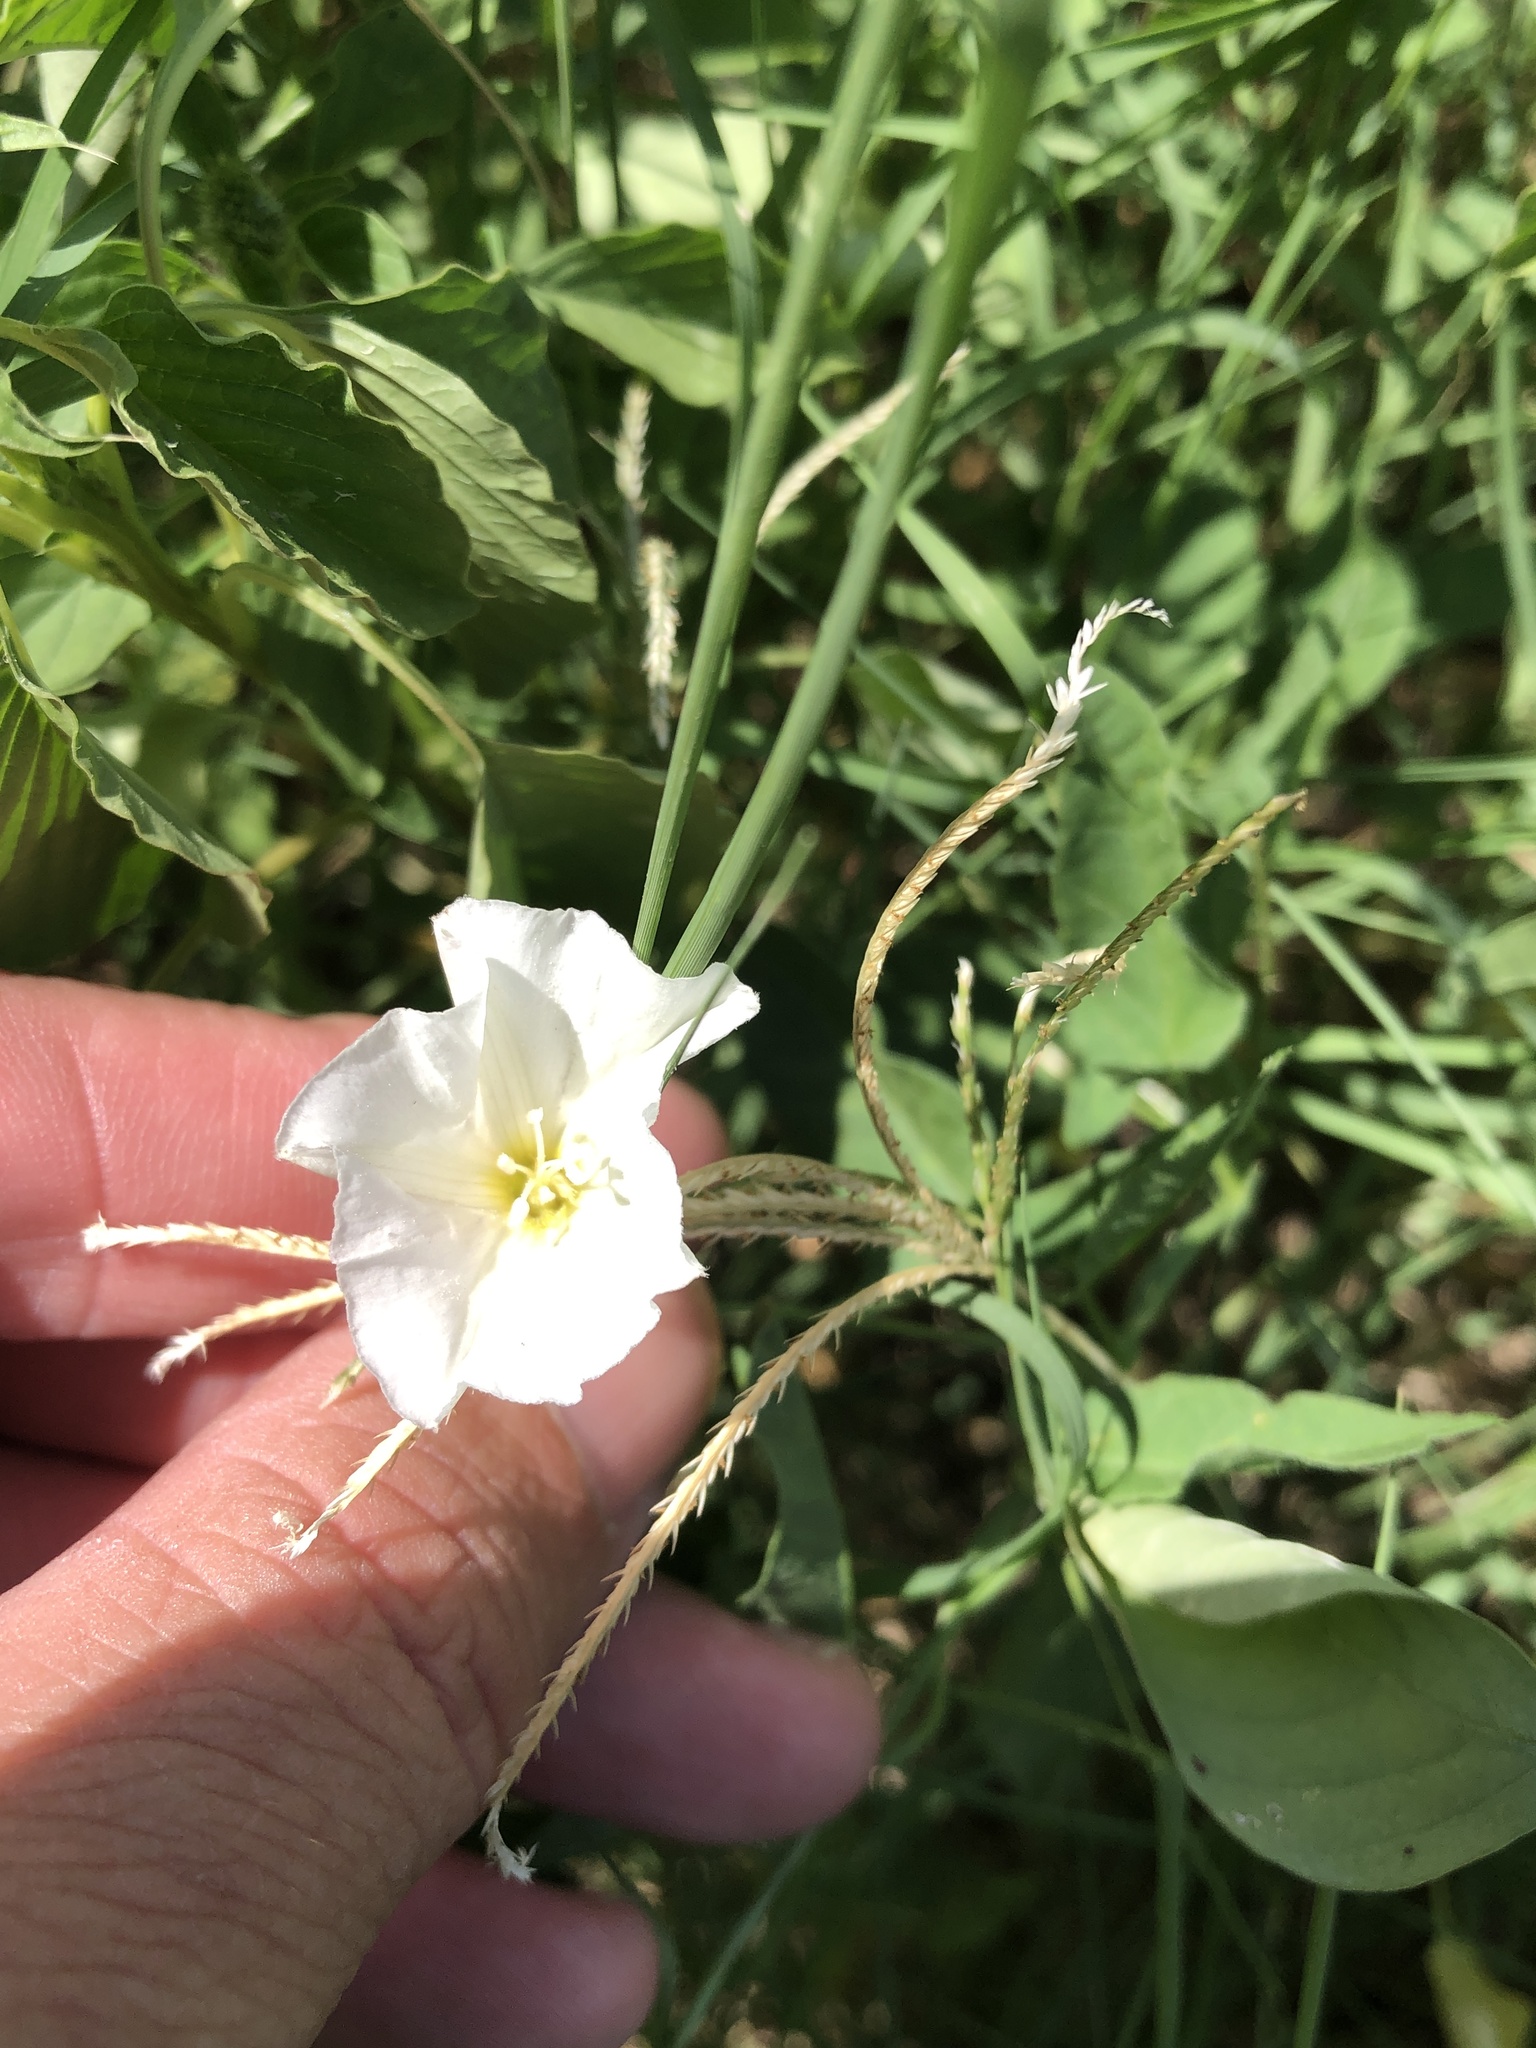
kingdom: Plantae
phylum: Tracheophyta
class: Magnoliopsida
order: Solanales
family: Convolvulaceae
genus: Convolvulus
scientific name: Convolvulus arvensis
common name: Field bindweed
